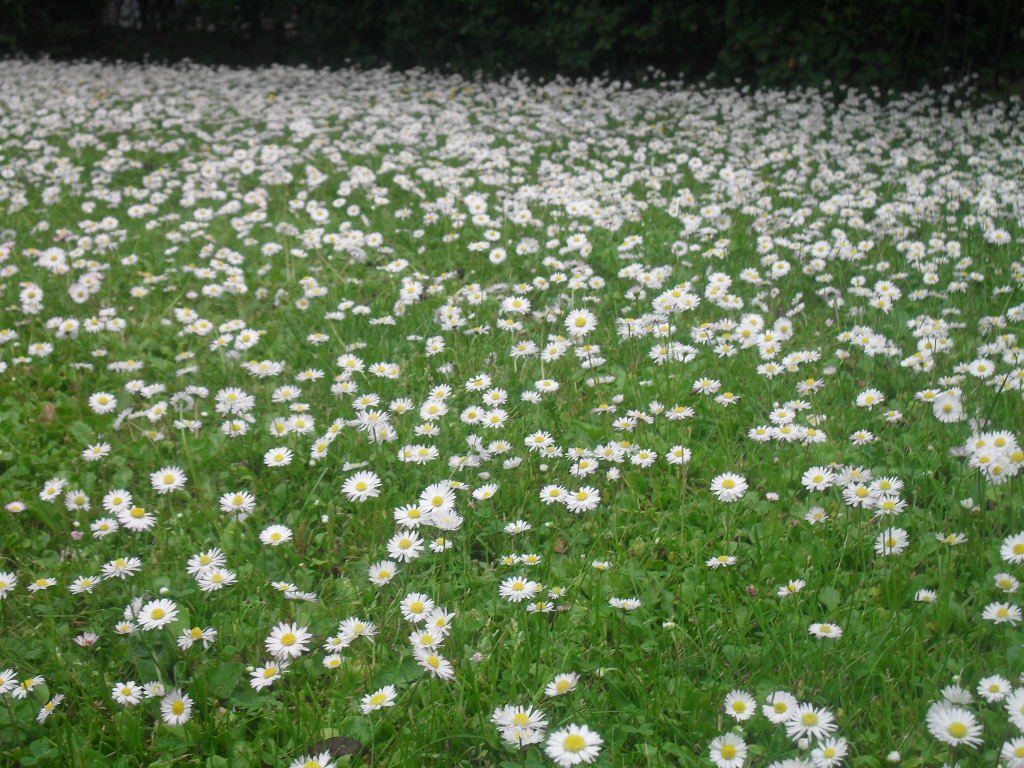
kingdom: Plantae
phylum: Tracheophyta
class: Magnoliopsida
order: Asterales
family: Asteraceae
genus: Bellis
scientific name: Bellis perennis
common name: Lawndaisy
